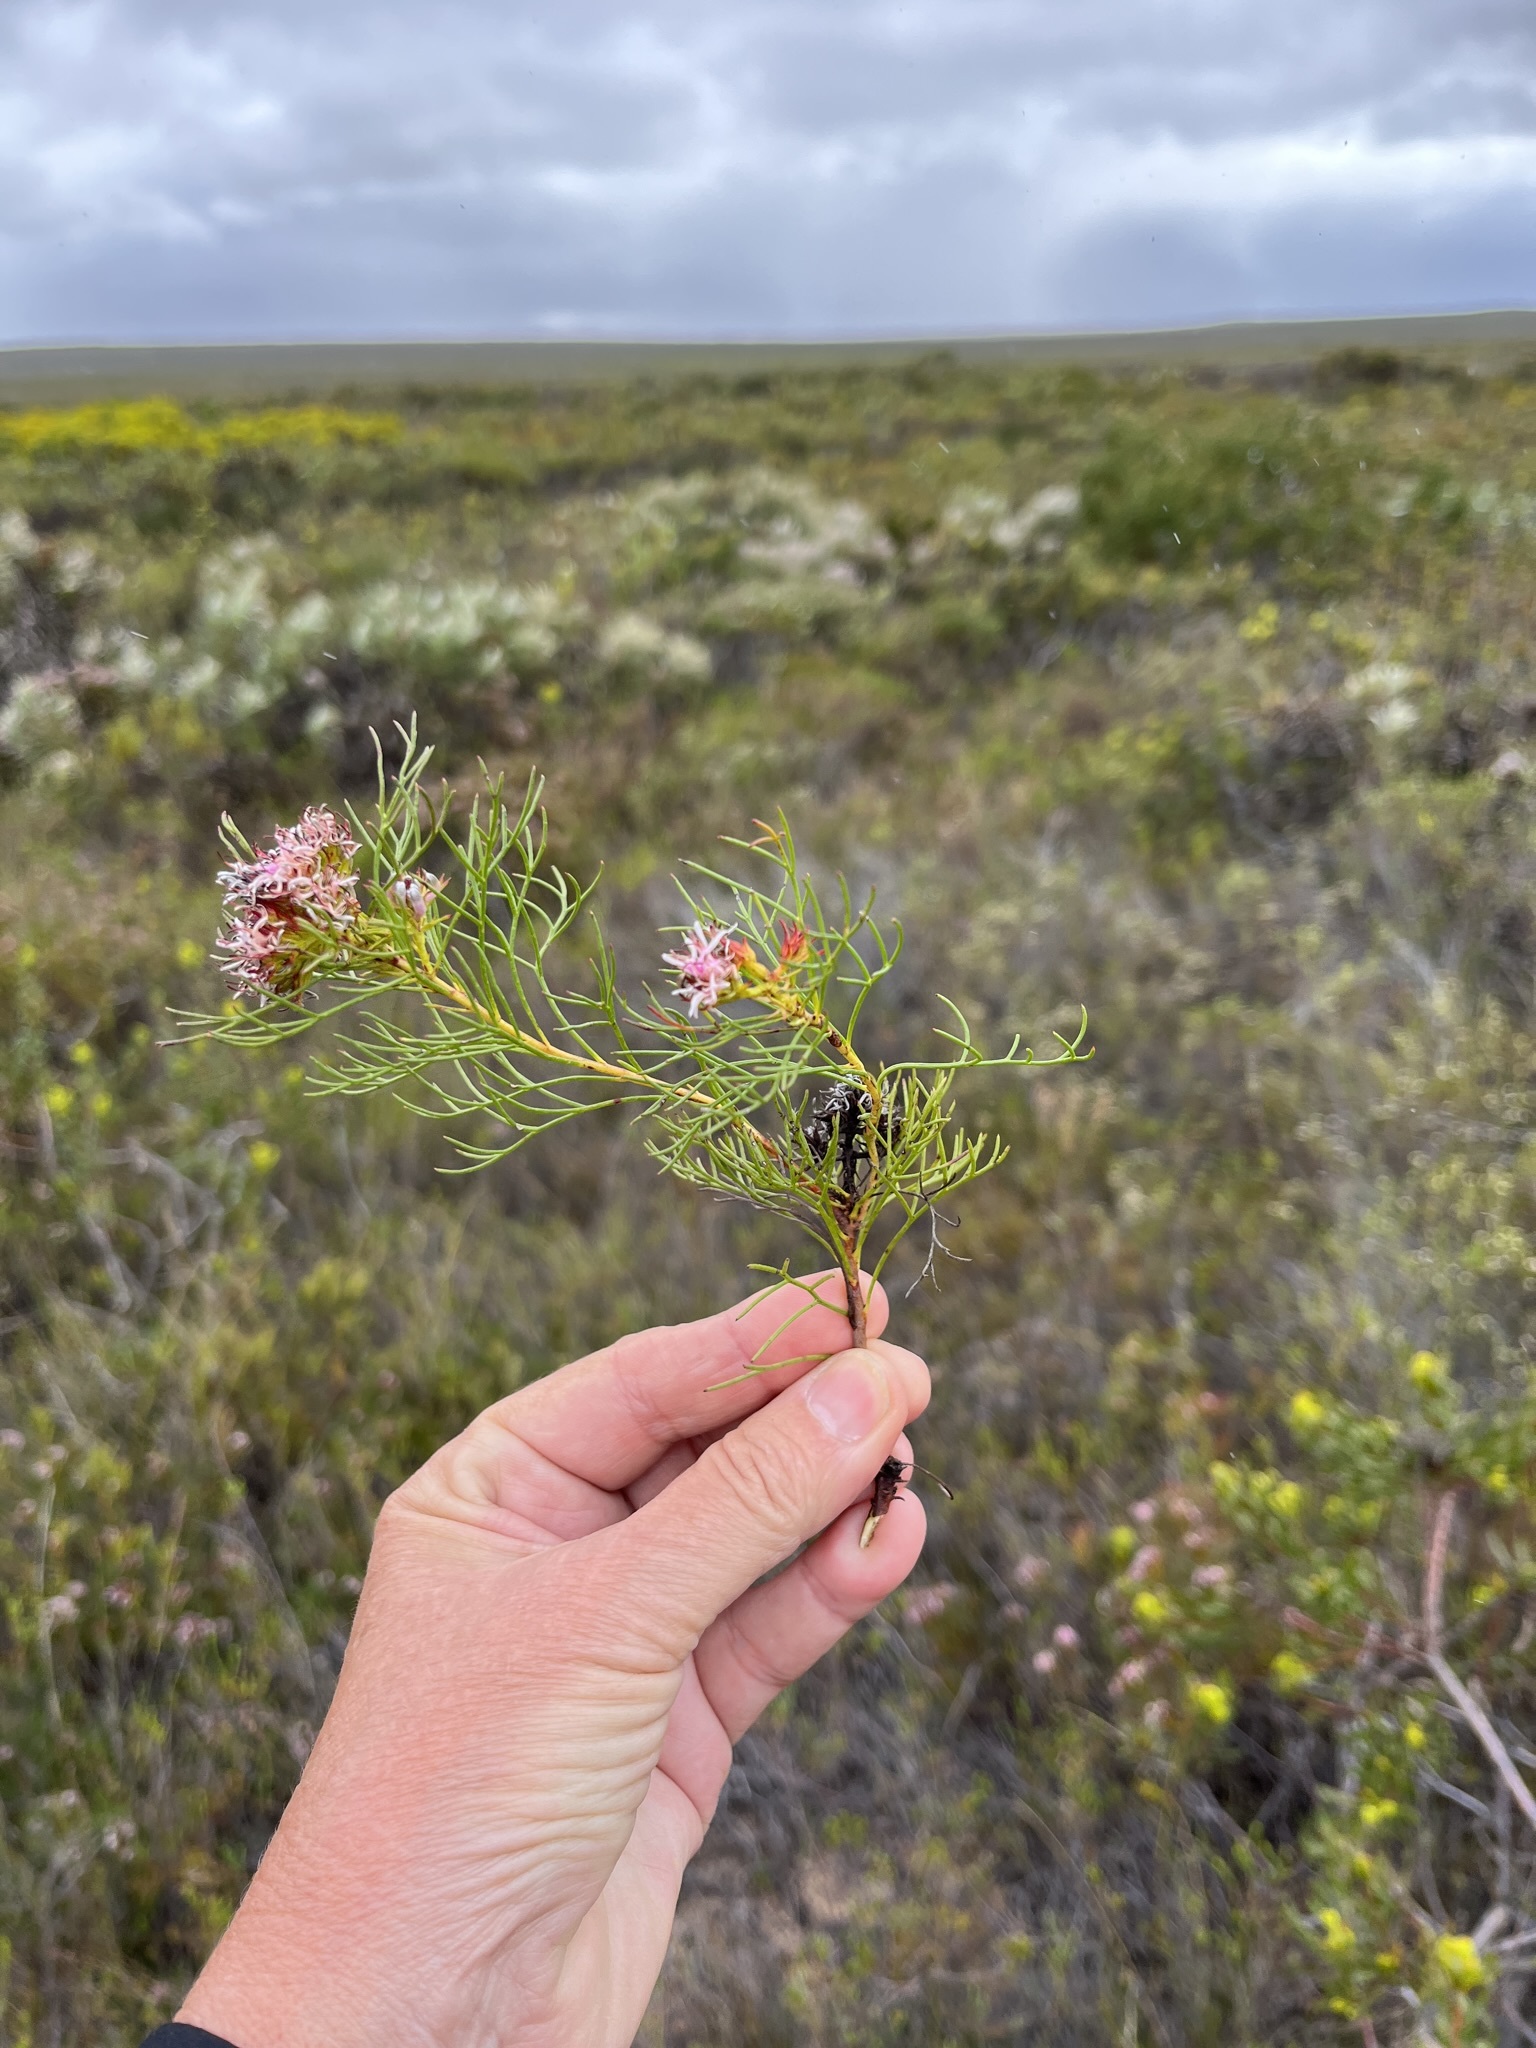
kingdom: Plantae
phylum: Tracheophyta
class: Magnoliopsida
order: Proteales
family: Proteaceae
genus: Serruria
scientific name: Serruria bolusii
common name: Agulhas spiderhead
